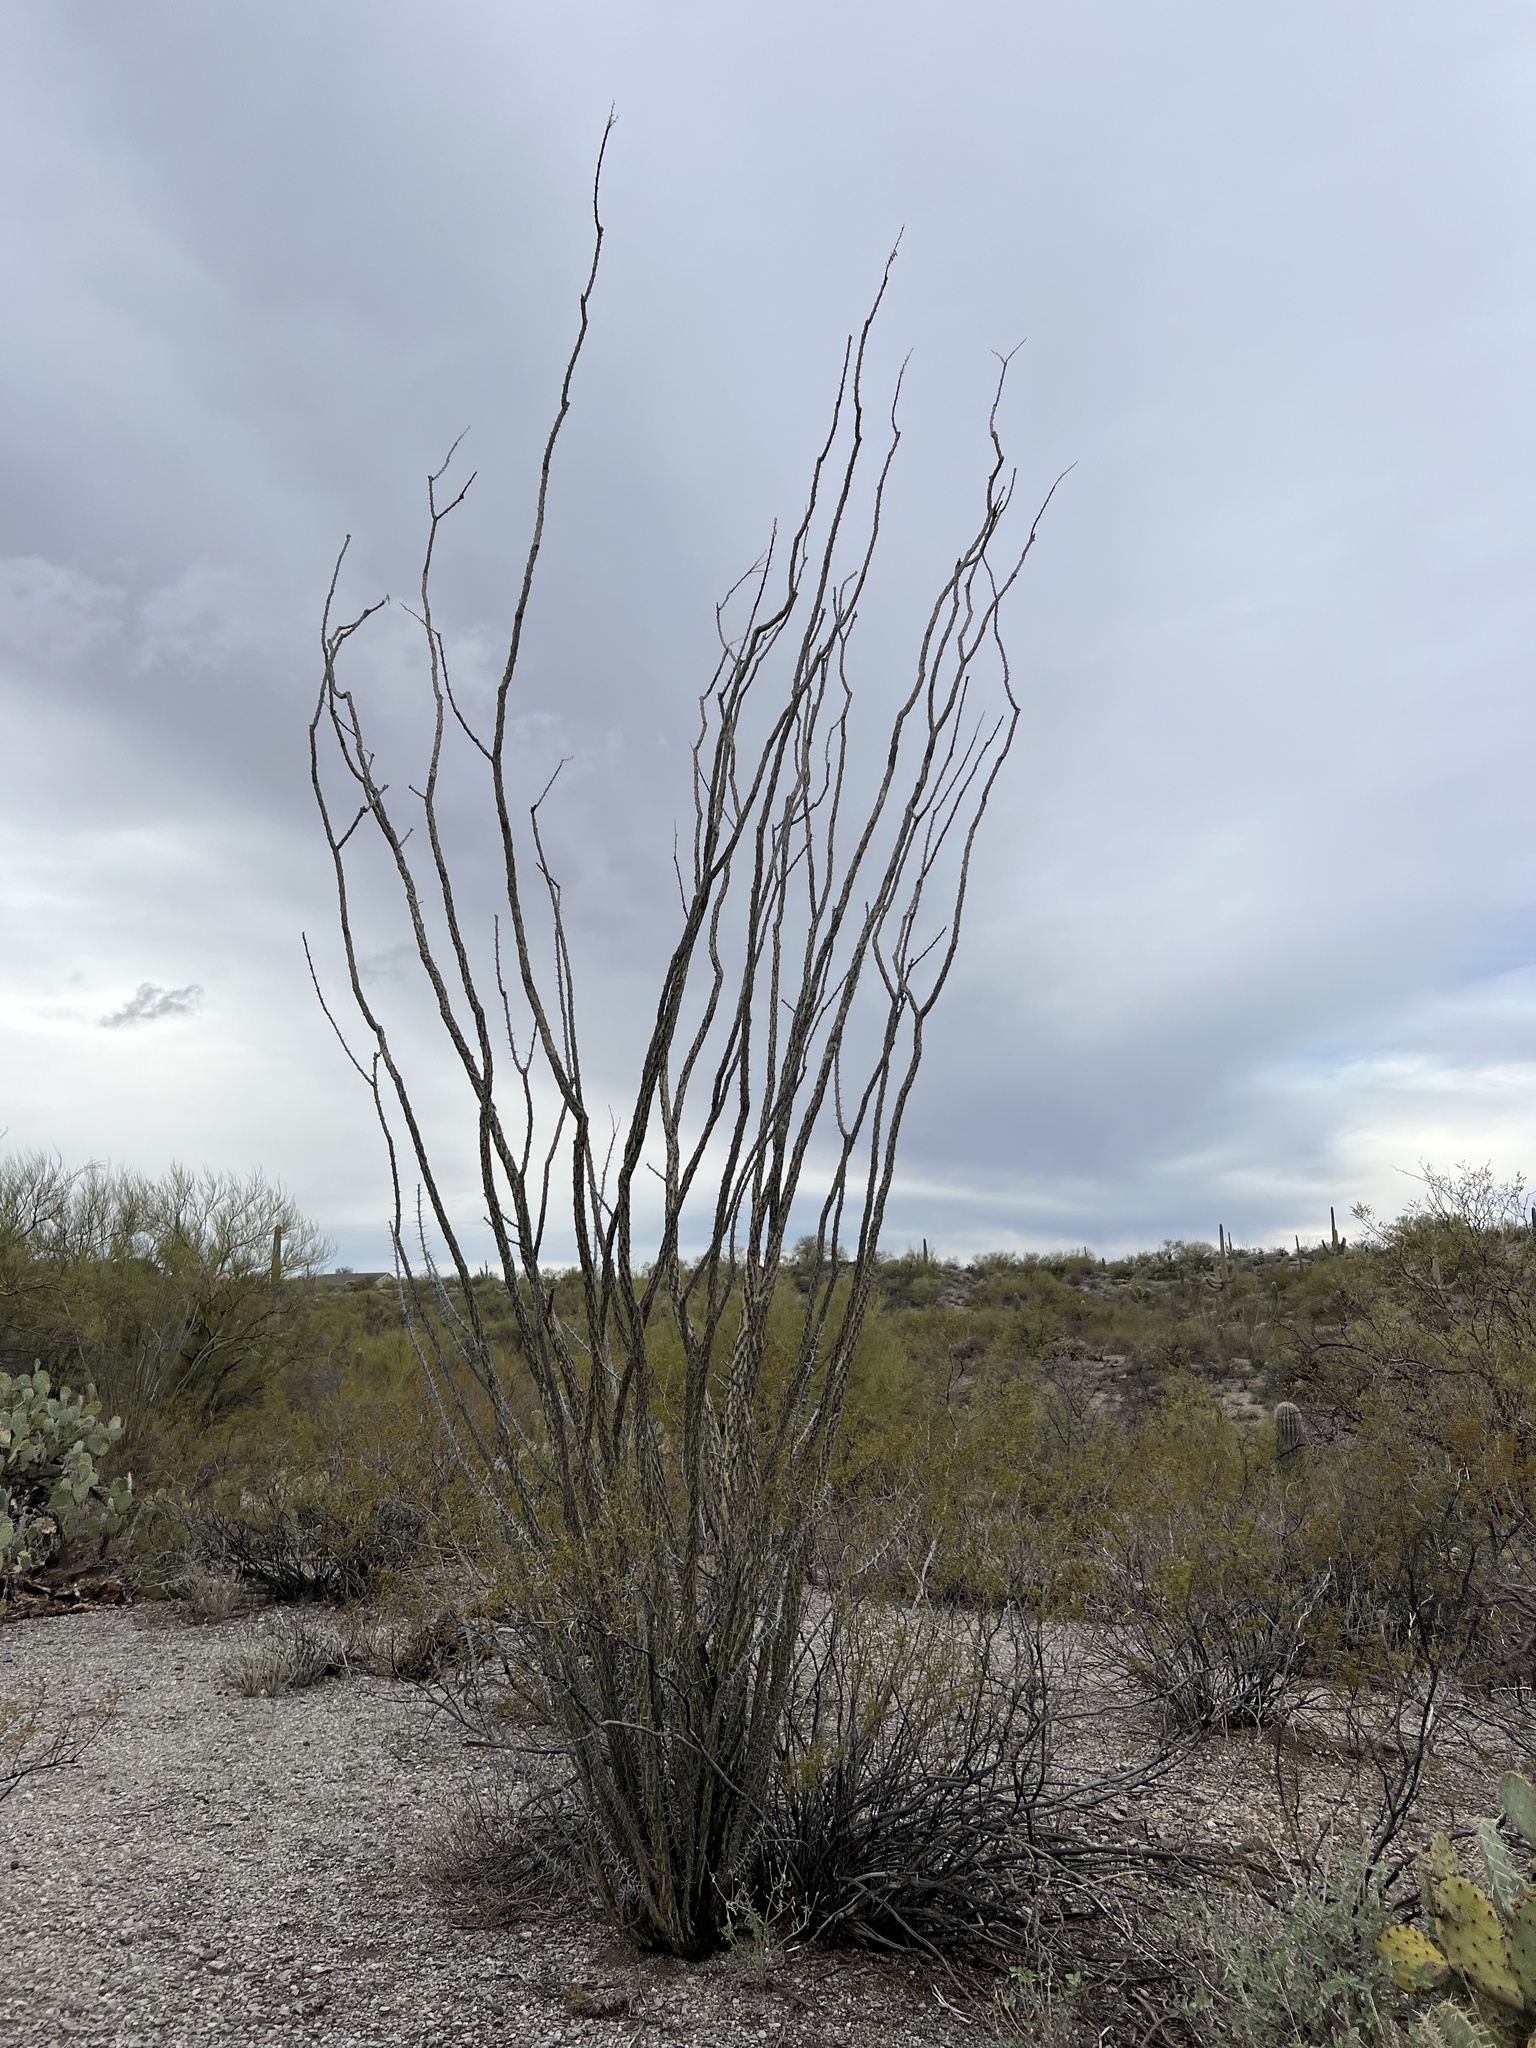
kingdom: Plantae
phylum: Tracheophyta
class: Magnoliopsida
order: Ericales
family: Fouquieriaceae
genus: Fouquieria
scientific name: Fouquieria splendens
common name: Vine-cactus
